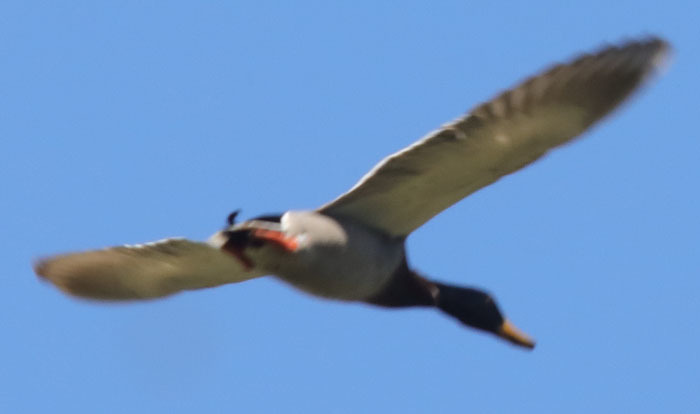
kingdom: Animalia
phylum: Chordata
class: Aves
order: Anseriformes
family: Anatidae
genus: Anas
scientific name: Anas platyrhynchos
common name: Mallard
